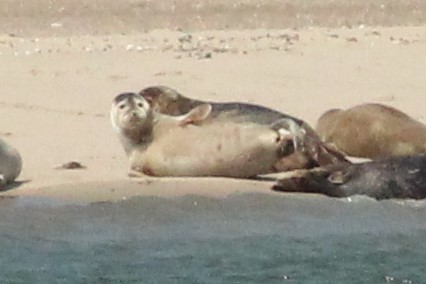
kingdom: Animalia
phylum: Chordata
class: Mammalia
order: Carnivora
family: Phocidae
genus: Halichoerus
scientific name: Halichoerus grypus
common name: Grey seal
